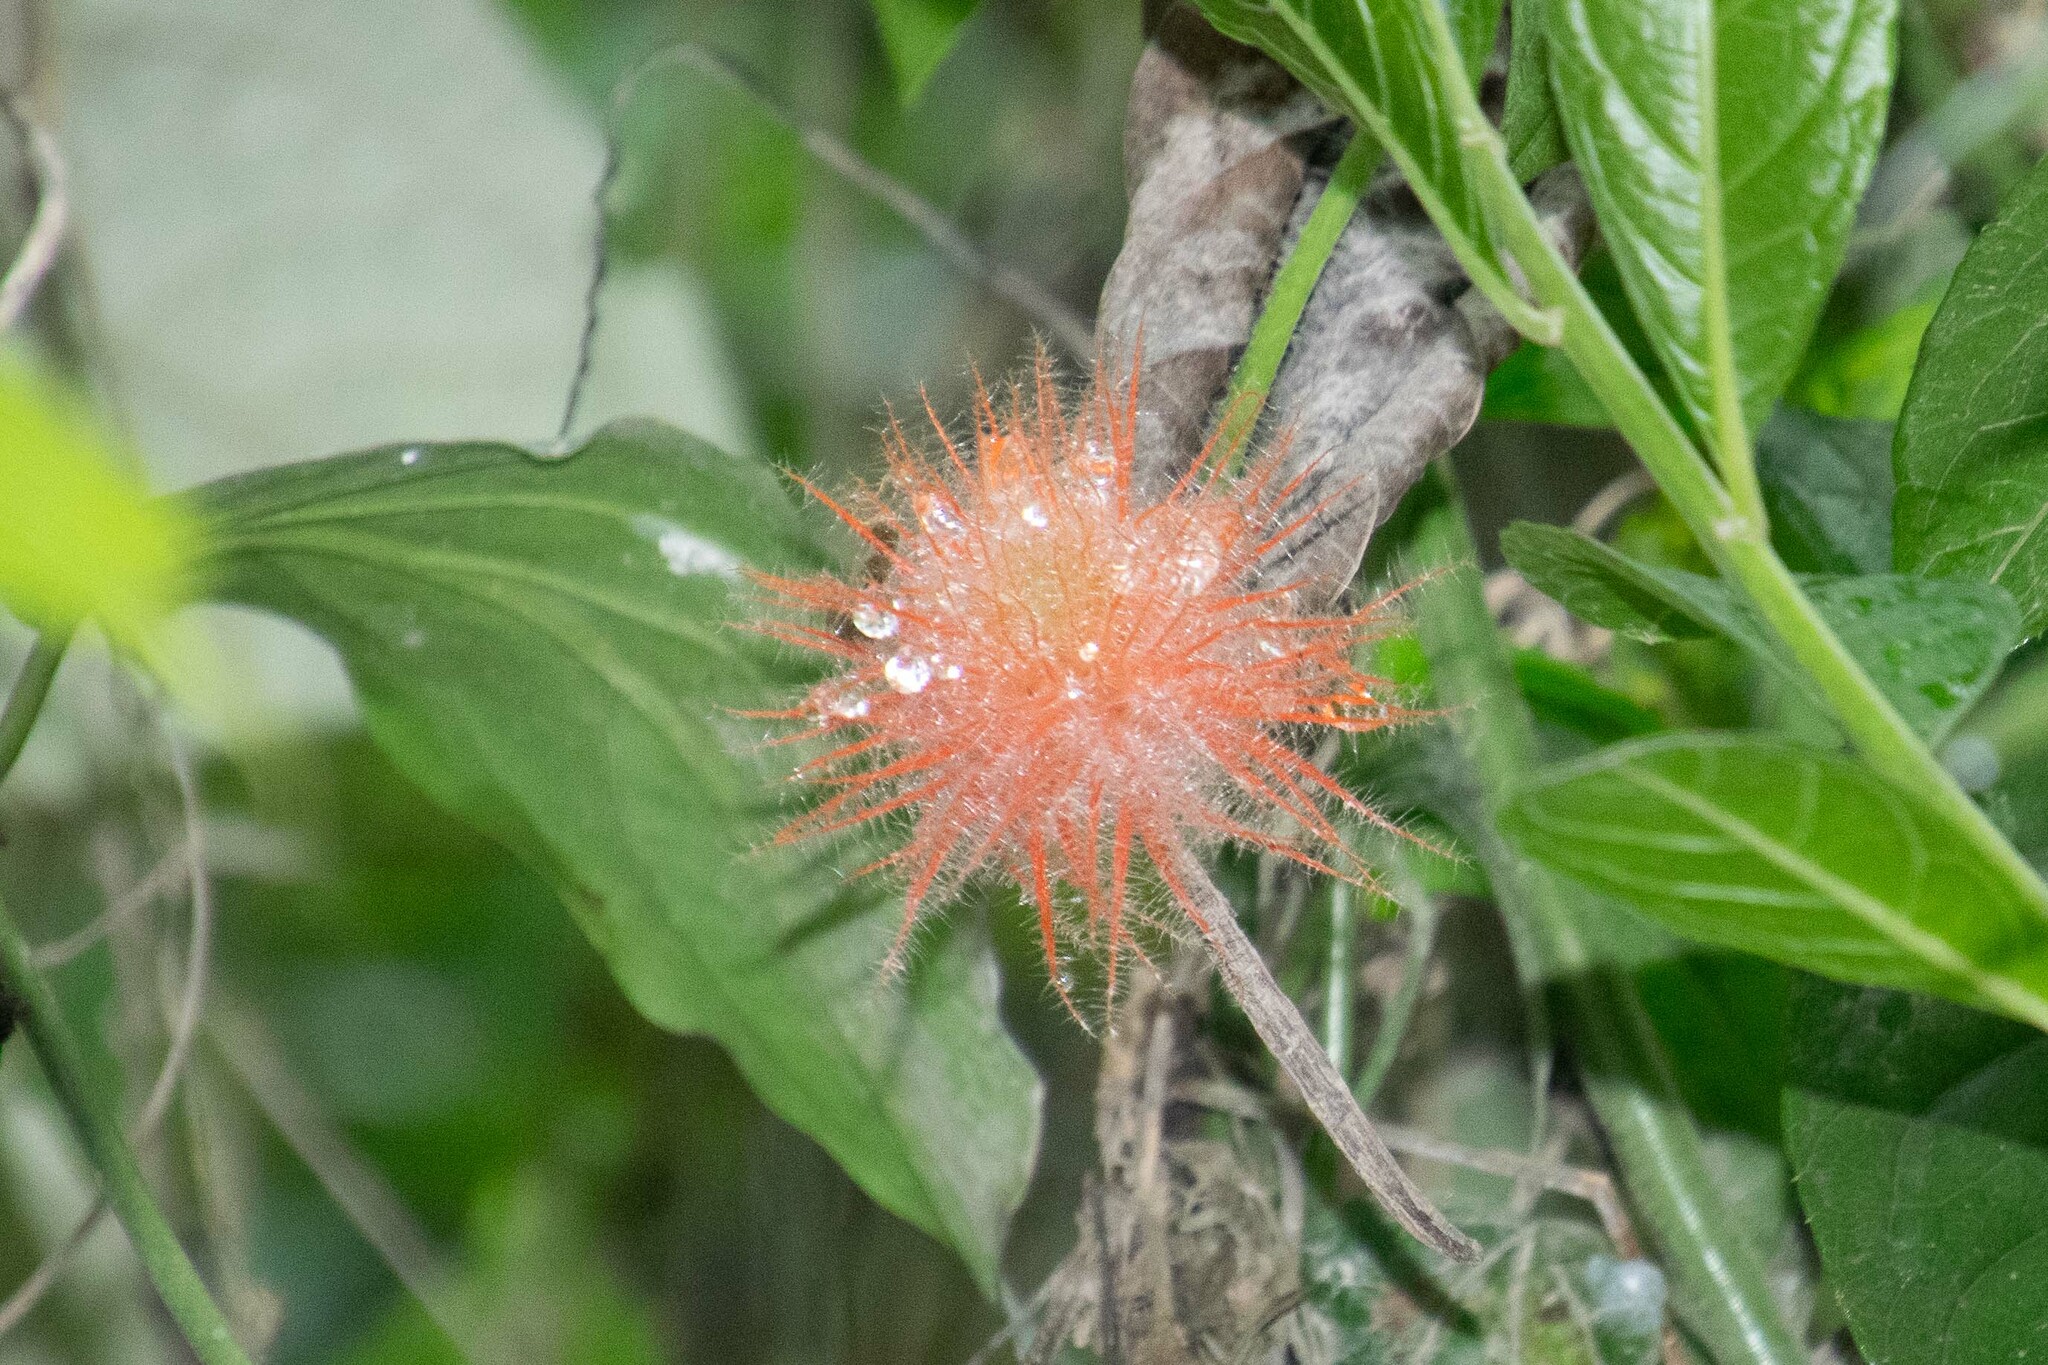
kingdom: Plantae
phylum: Tracheophyta
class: Magnoliopsida
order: Cucurbitales
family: Cucurbitaceae
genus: Gurania
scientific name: Gurania eriantha
